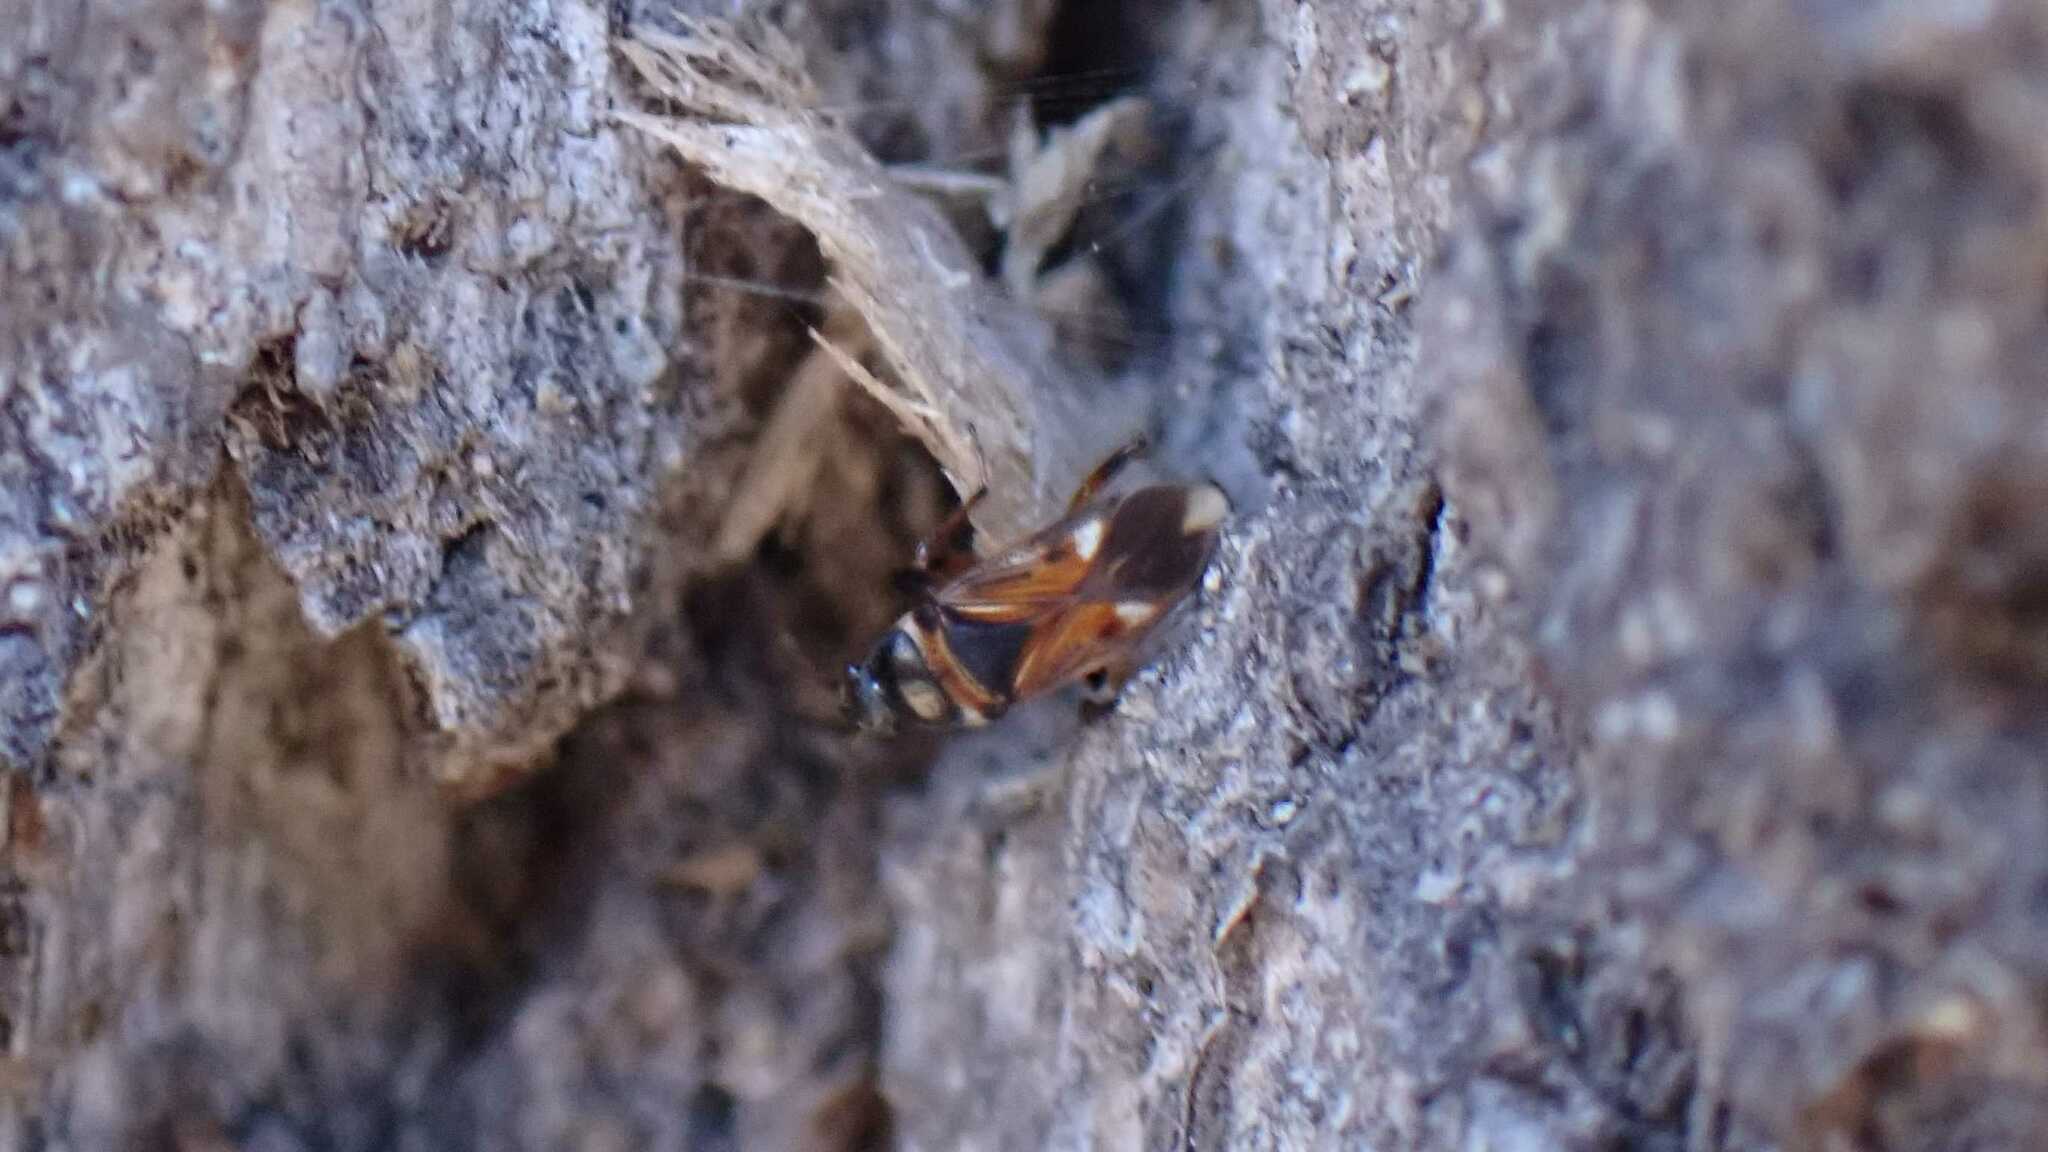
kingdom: Animalia
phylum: Arthropoda
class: Insecta
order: Hemiptera
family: Rhyparochromidae
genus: Raglius
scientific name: Raglius alboacuminatus
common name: Dirt-colored seed bug
